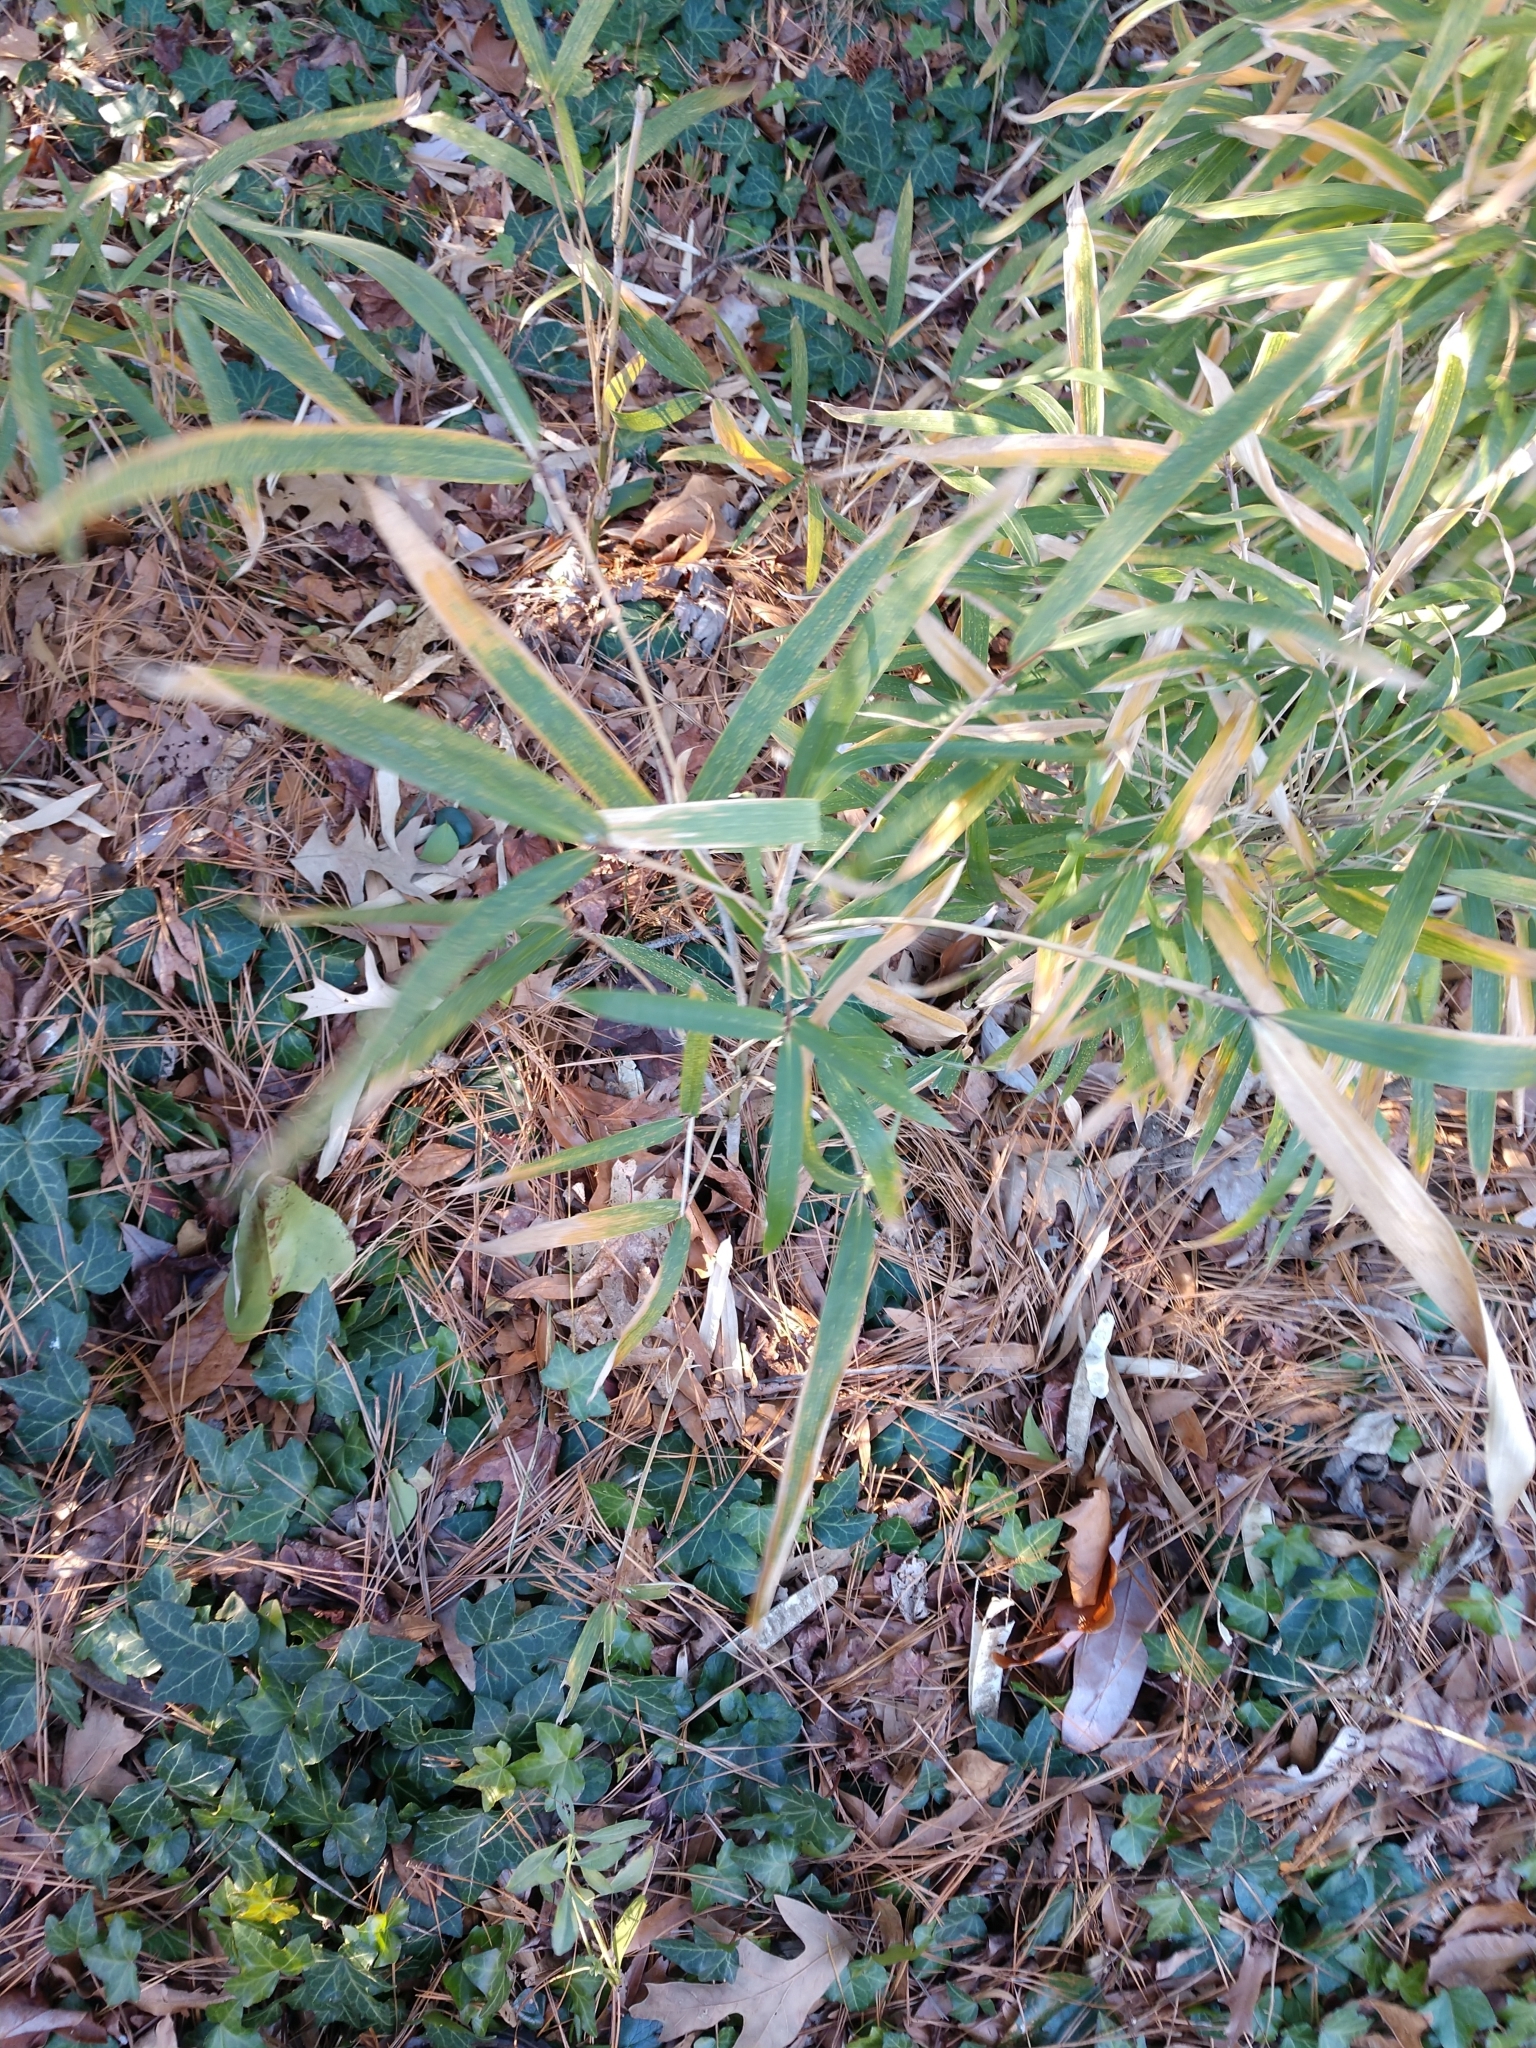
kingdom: Plantae
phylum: Tracheophyta
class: Liliopsida
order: Poales
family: Poaceae
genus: Arundinaria
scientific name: Arundinaria tecta
